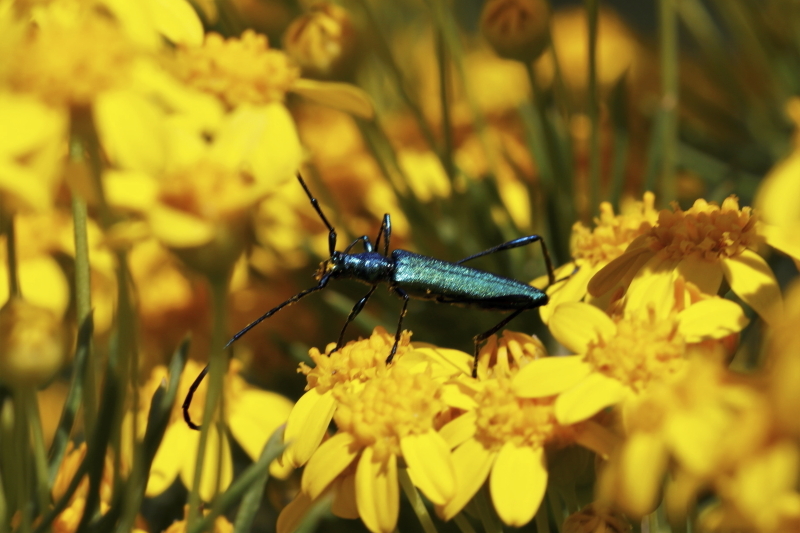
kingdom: Animalia
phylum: Arthropoda
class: Insecta
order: Coleoptera
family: Cerambycidae
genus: Promeces
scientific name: Promeces longipes
